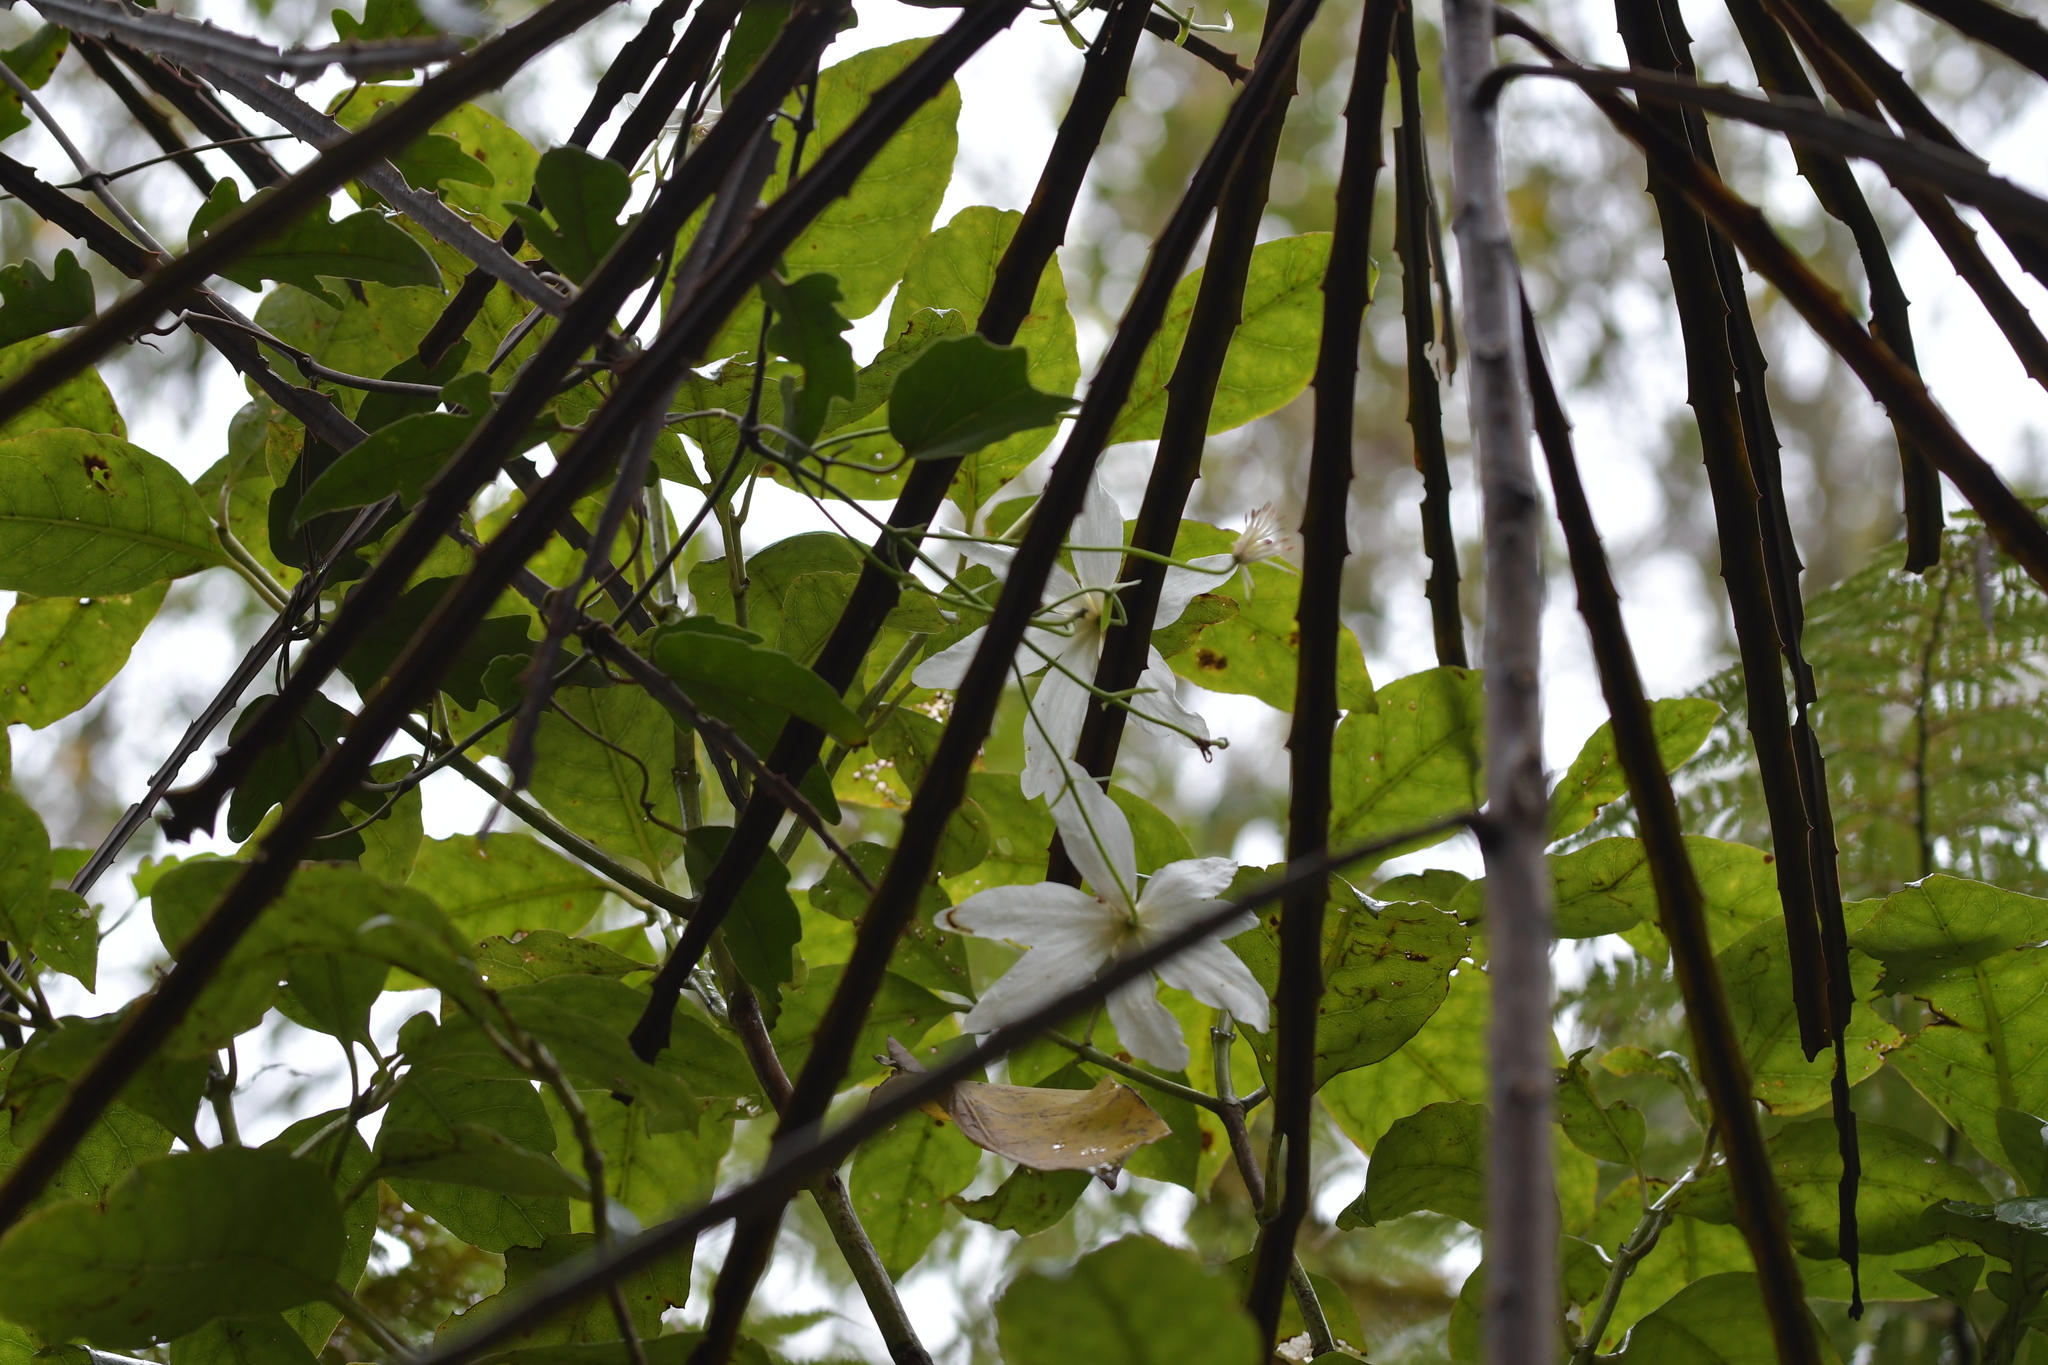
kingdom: Plantae
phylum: Tracheophyta
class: Magnoliopsida
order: Ranunculales
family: Ranunculaceae
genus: Clematis
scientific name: Clematis paniculata
